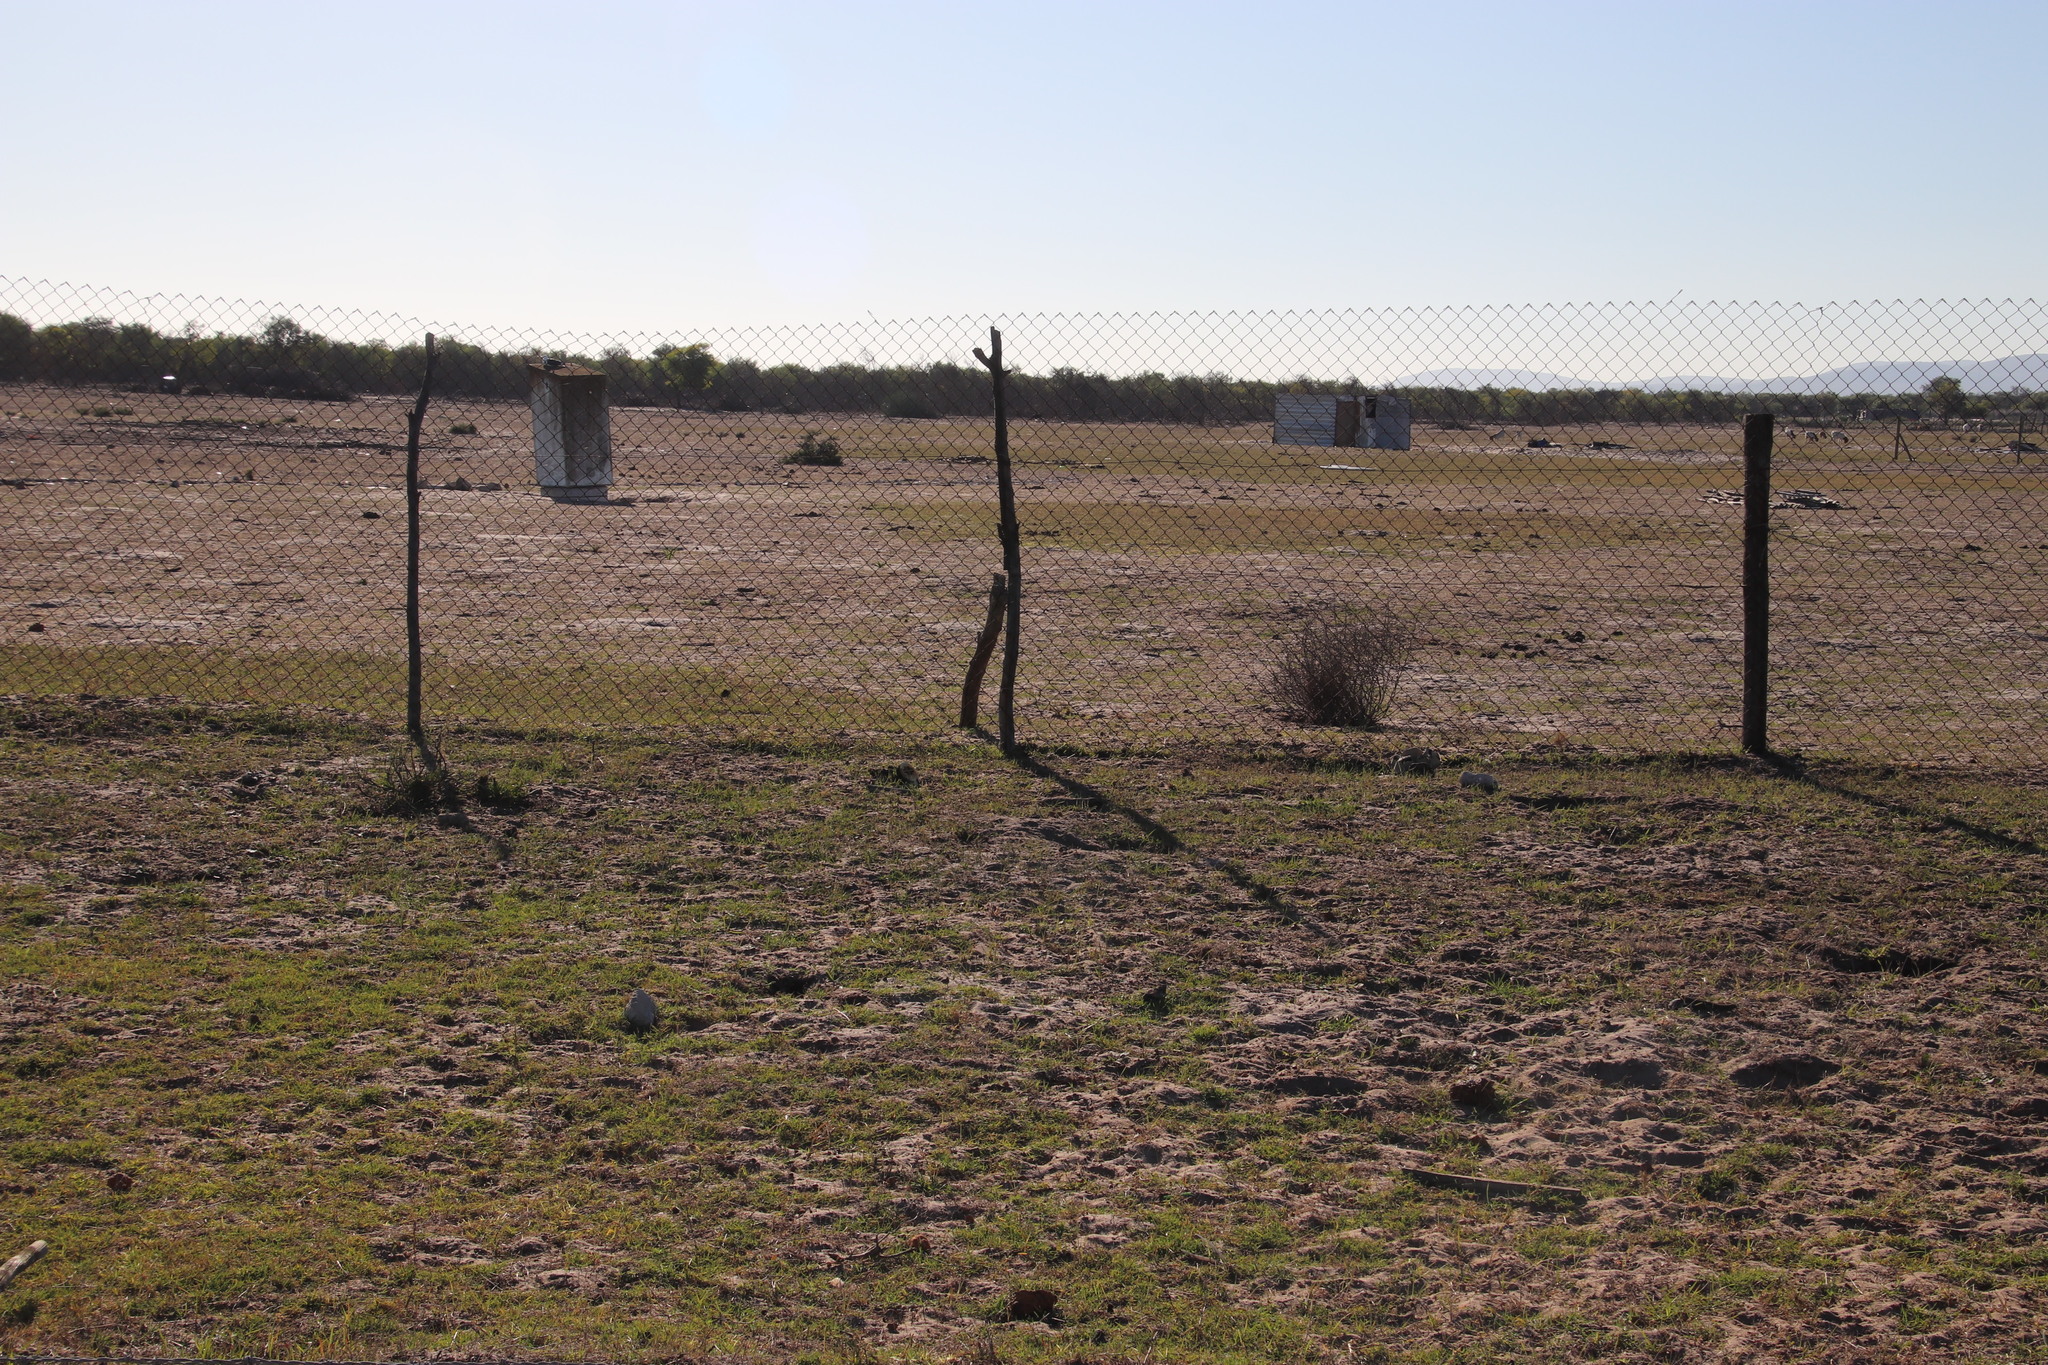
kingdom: Plantae
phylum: Tracheophyta
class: Liliopsida
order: Poales
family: Poaceae
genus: Cynodon
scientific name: Cynodon dactylon
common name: Bermuda grass
